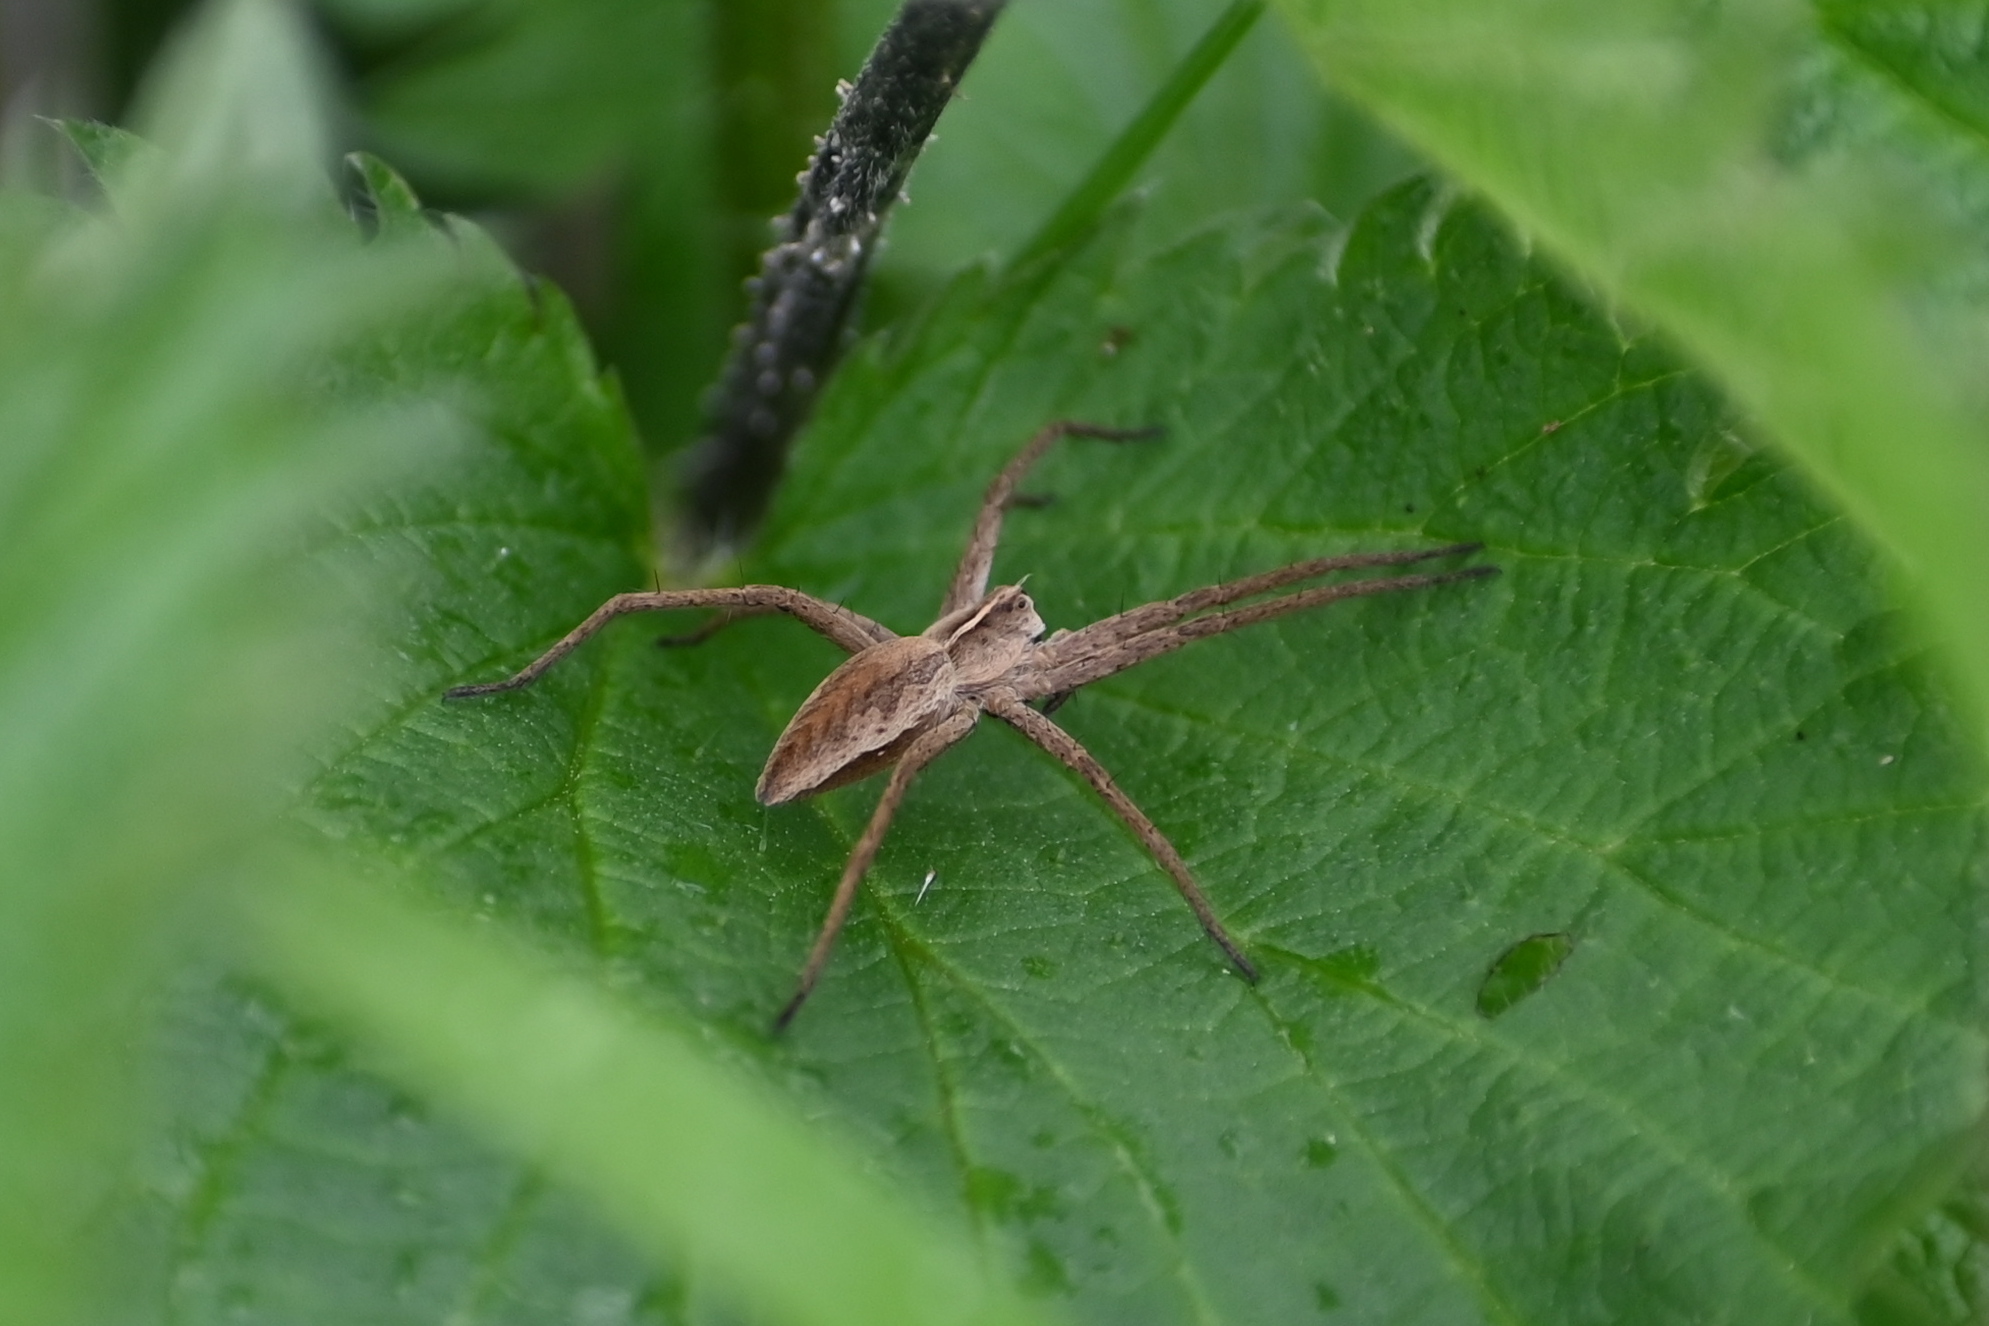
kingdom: Animalia
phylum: Arthropoda
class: Arachnida
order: Araneae
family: Pisauridae
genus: Pisaura
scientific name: Pisaura mirabilis
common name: Tent spider
